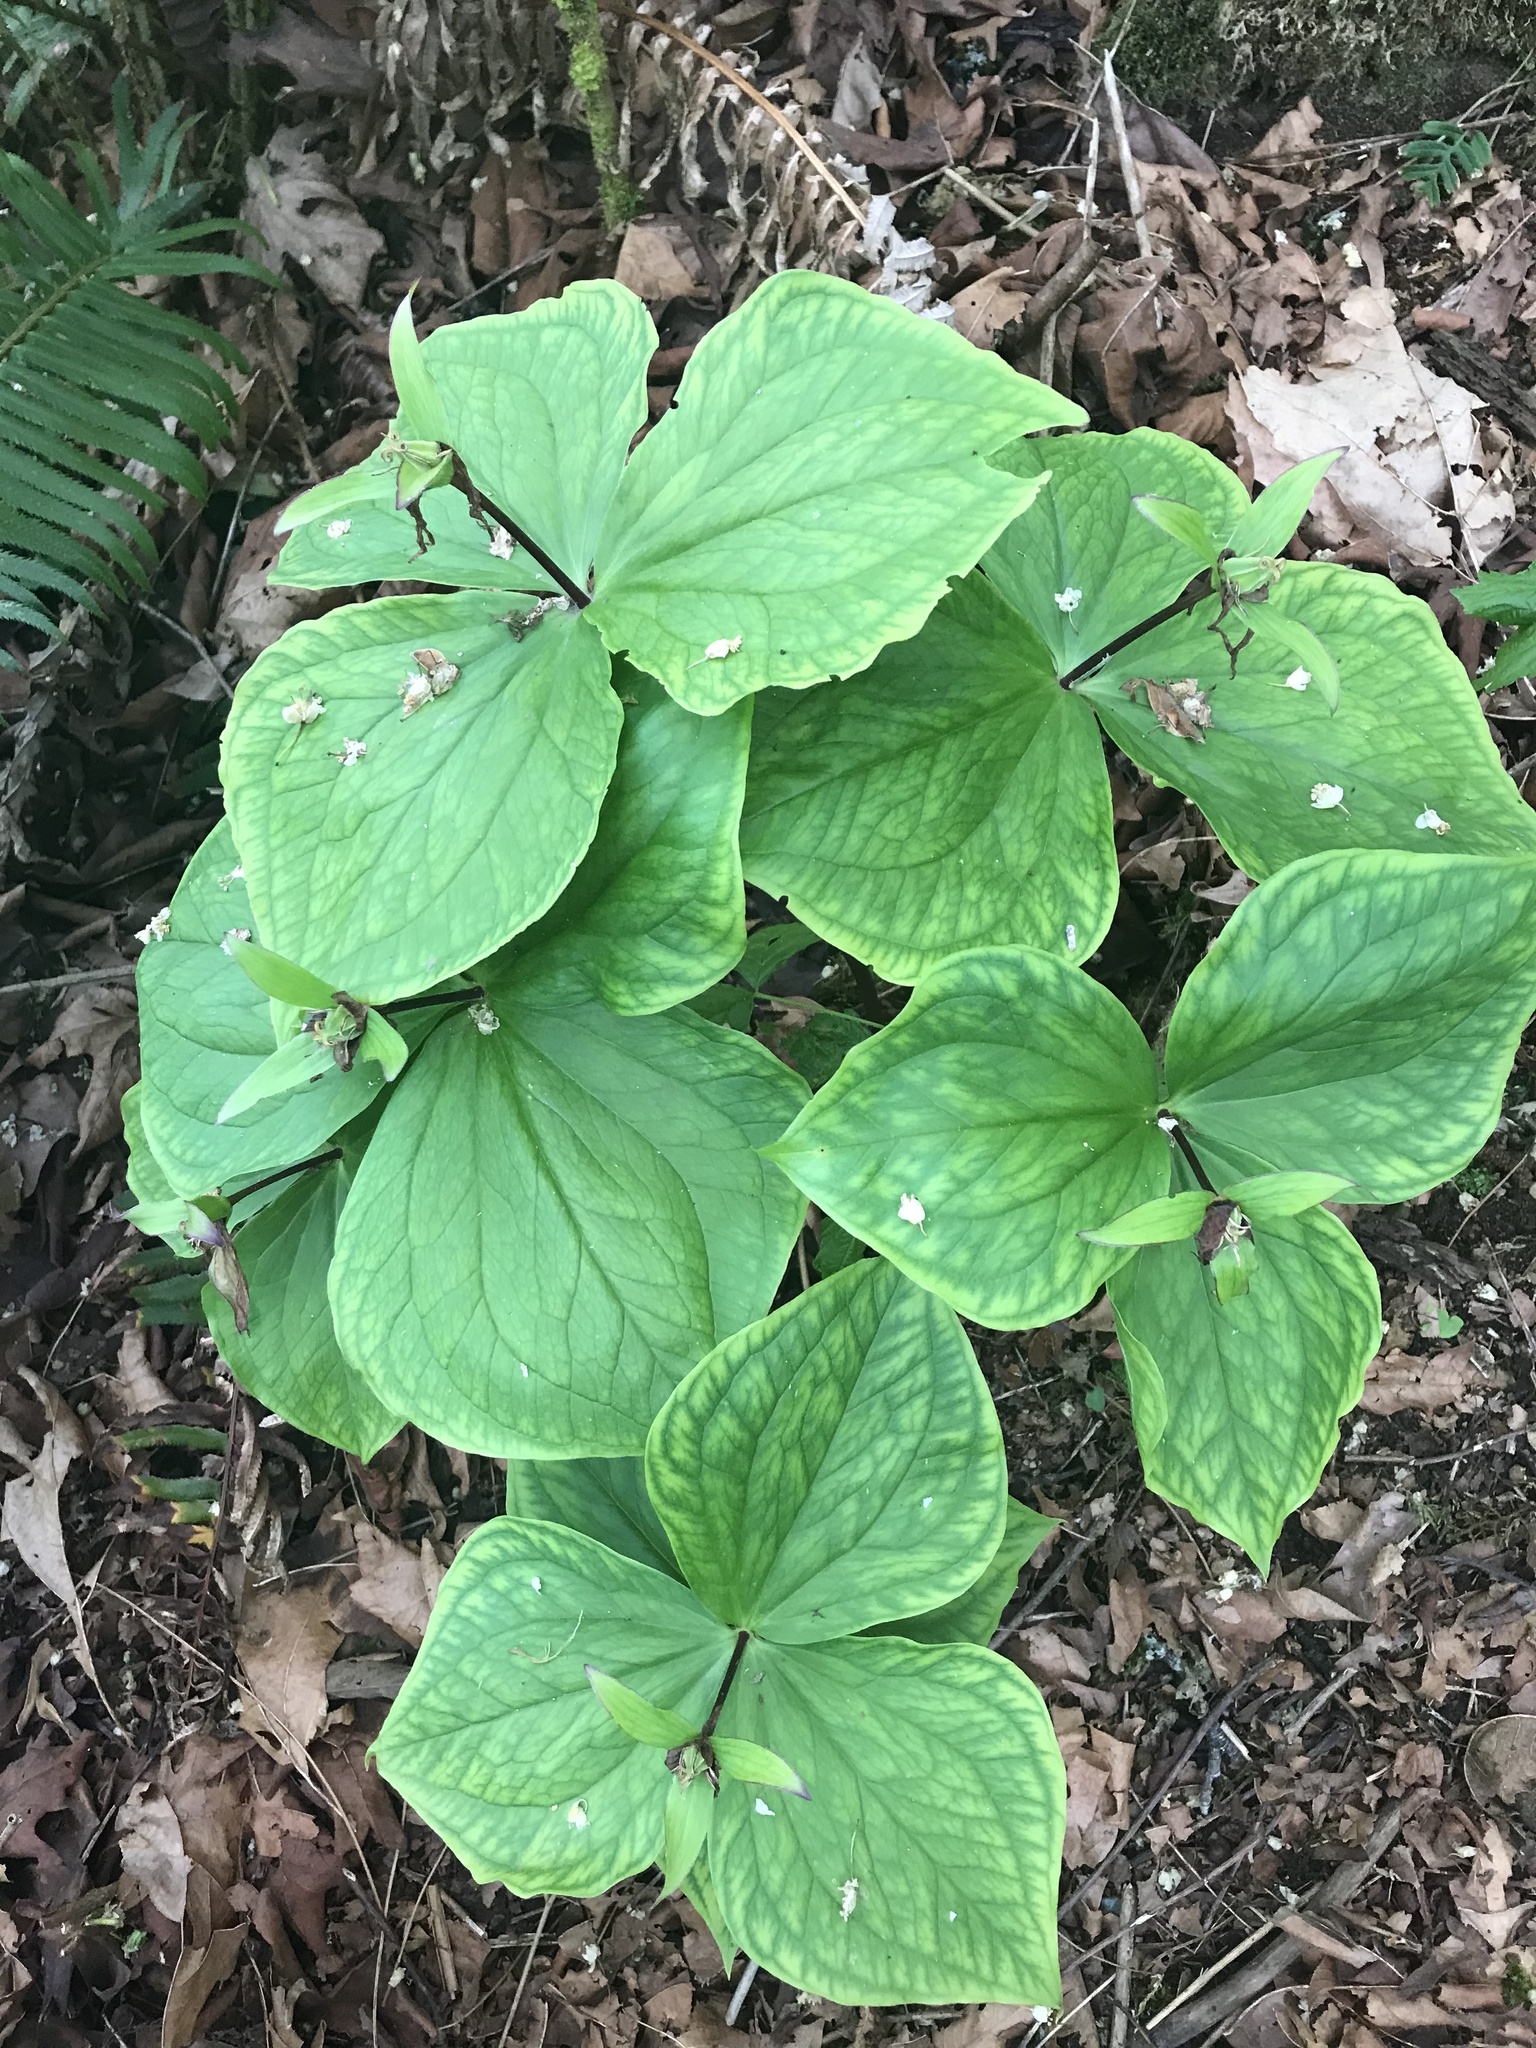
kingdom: Plantae
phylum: Tracheophyta
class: Liliopsida
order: Liliales
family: Melanthiaceae
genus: Trillium
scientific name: Trillium ovatum
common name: Pacific trillium
